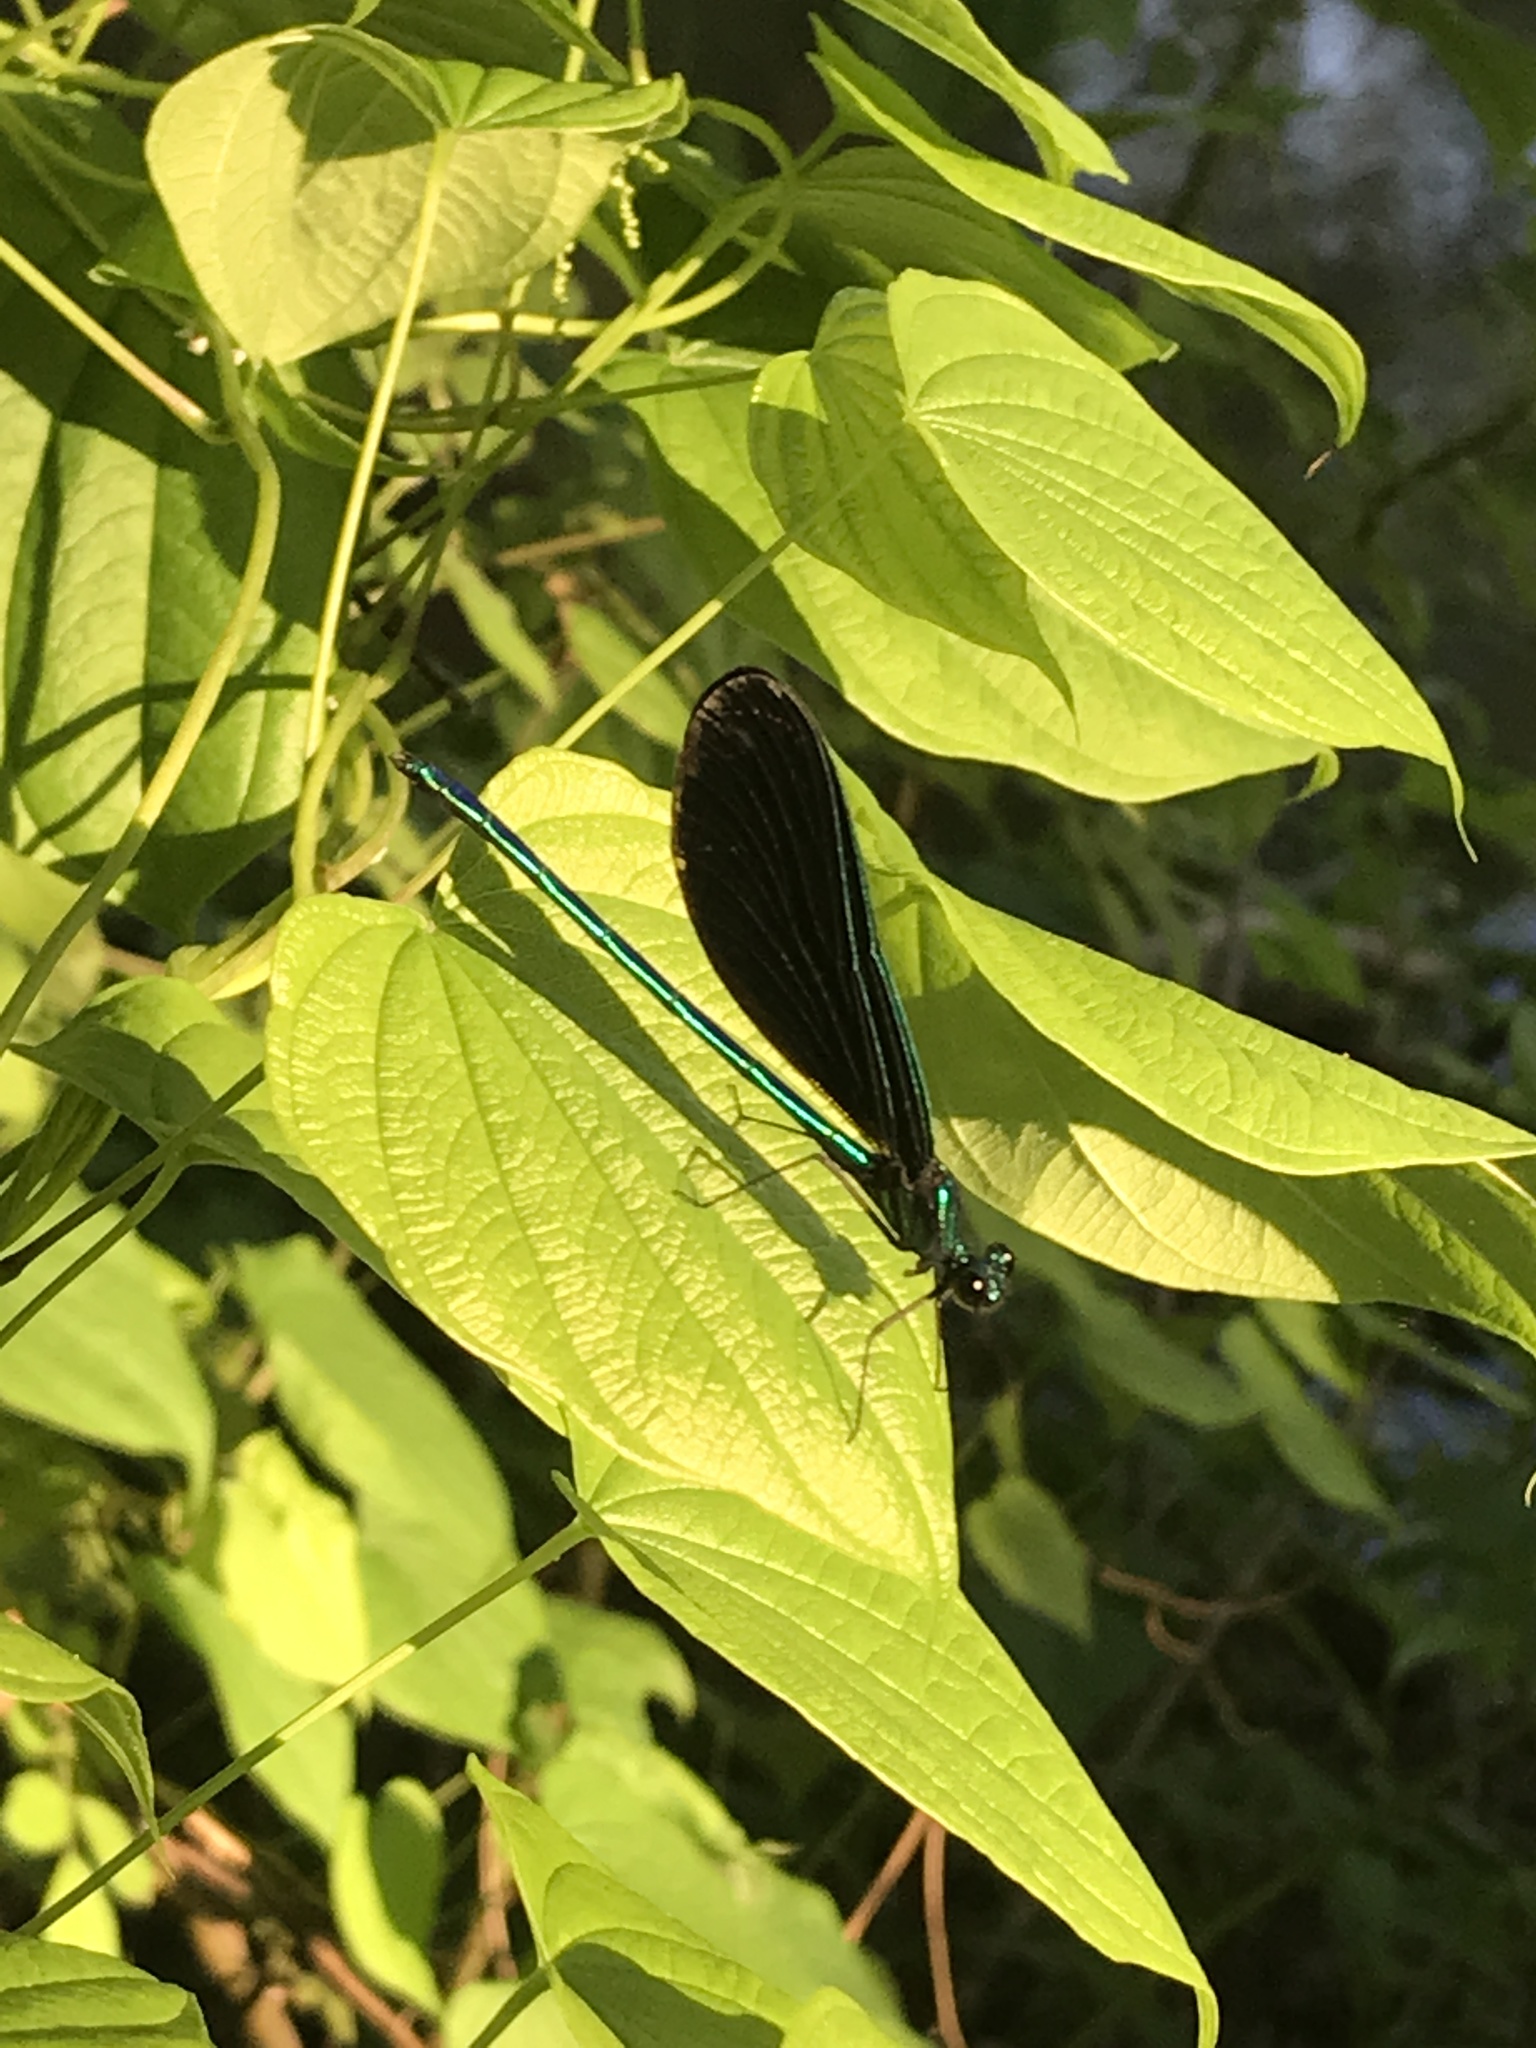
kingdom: Animalia
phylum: Arthropoda
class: Insecta
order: Odonata
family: Calopterygidae
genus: Calopteryx
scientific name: Calopteryx maculata
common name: Ebony jewelwing
